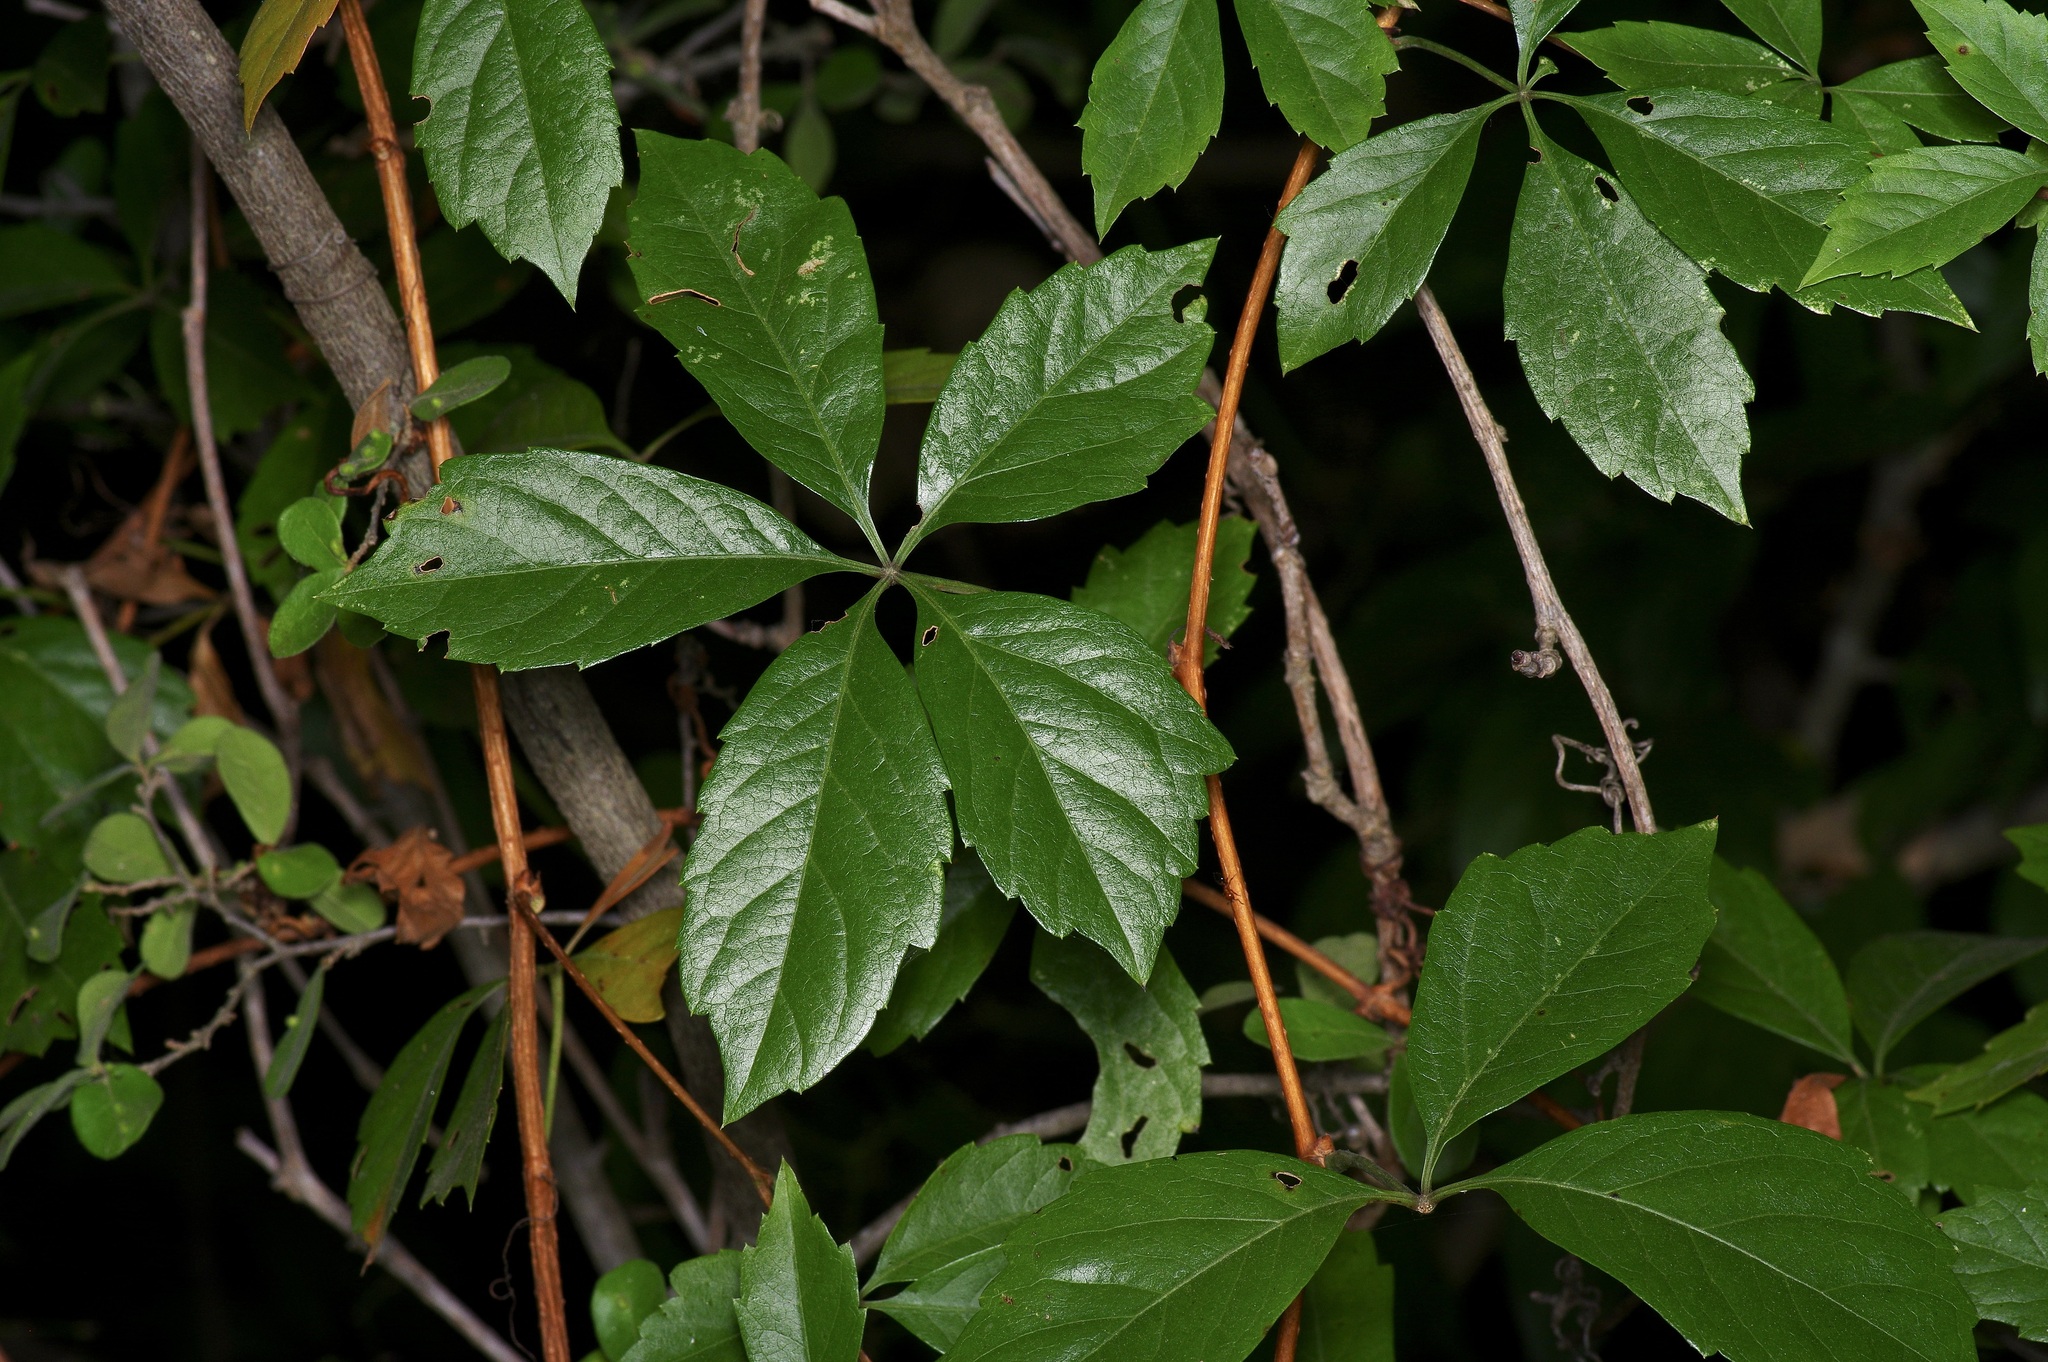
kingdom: Plantae
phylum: Tracheophyta
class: Magnoliopsida
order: Vitales
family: Vitaceae
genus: Parthenocissus
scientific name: Parthenocissus quinquefolia
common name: Virginia-creeper
